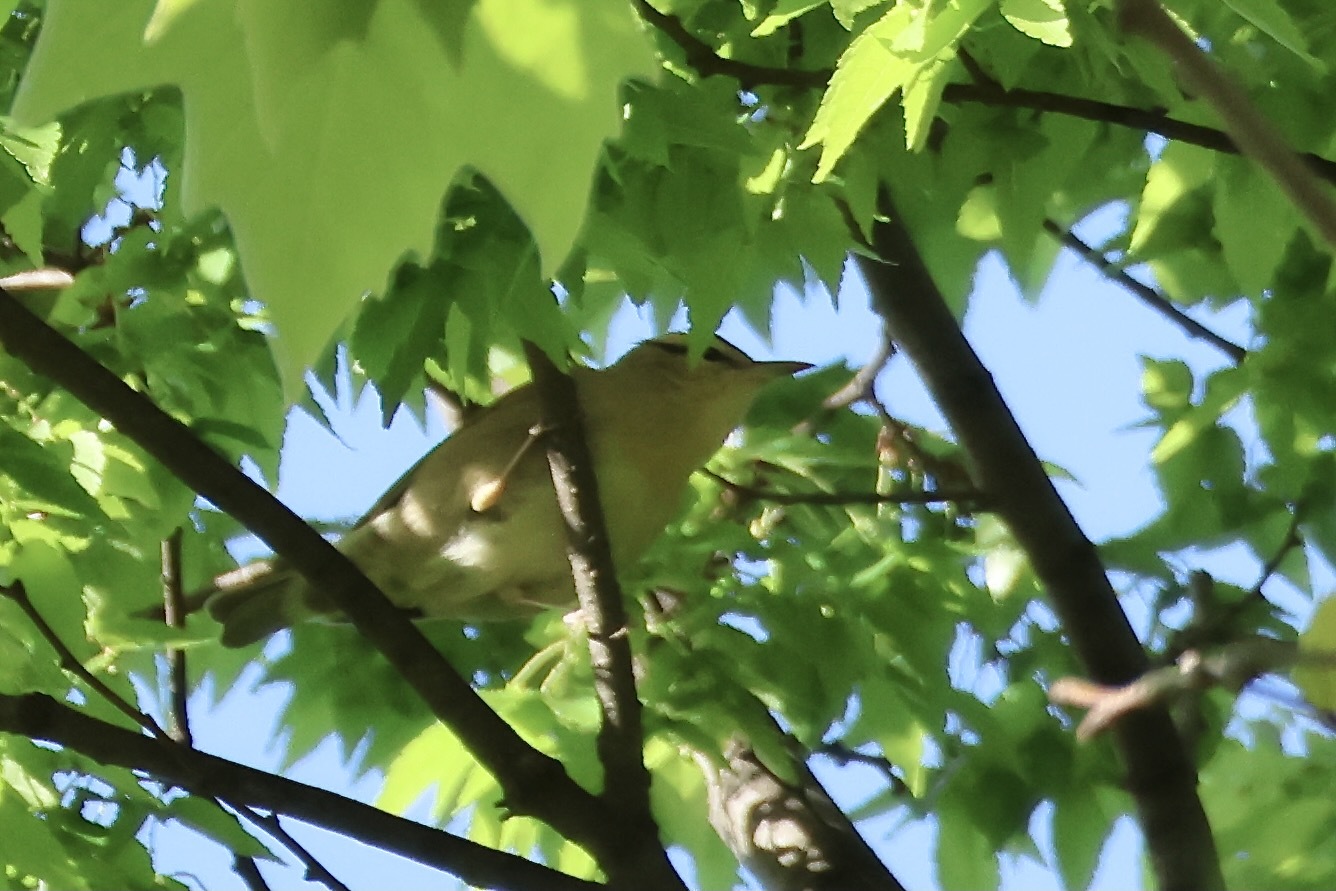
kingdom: Animalia
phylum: Chordata
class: Aves
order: Passeriformes
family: Parulidae
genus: Helmitheros
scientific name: Helmitheros vermivorum
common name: Worm-eating warbler
